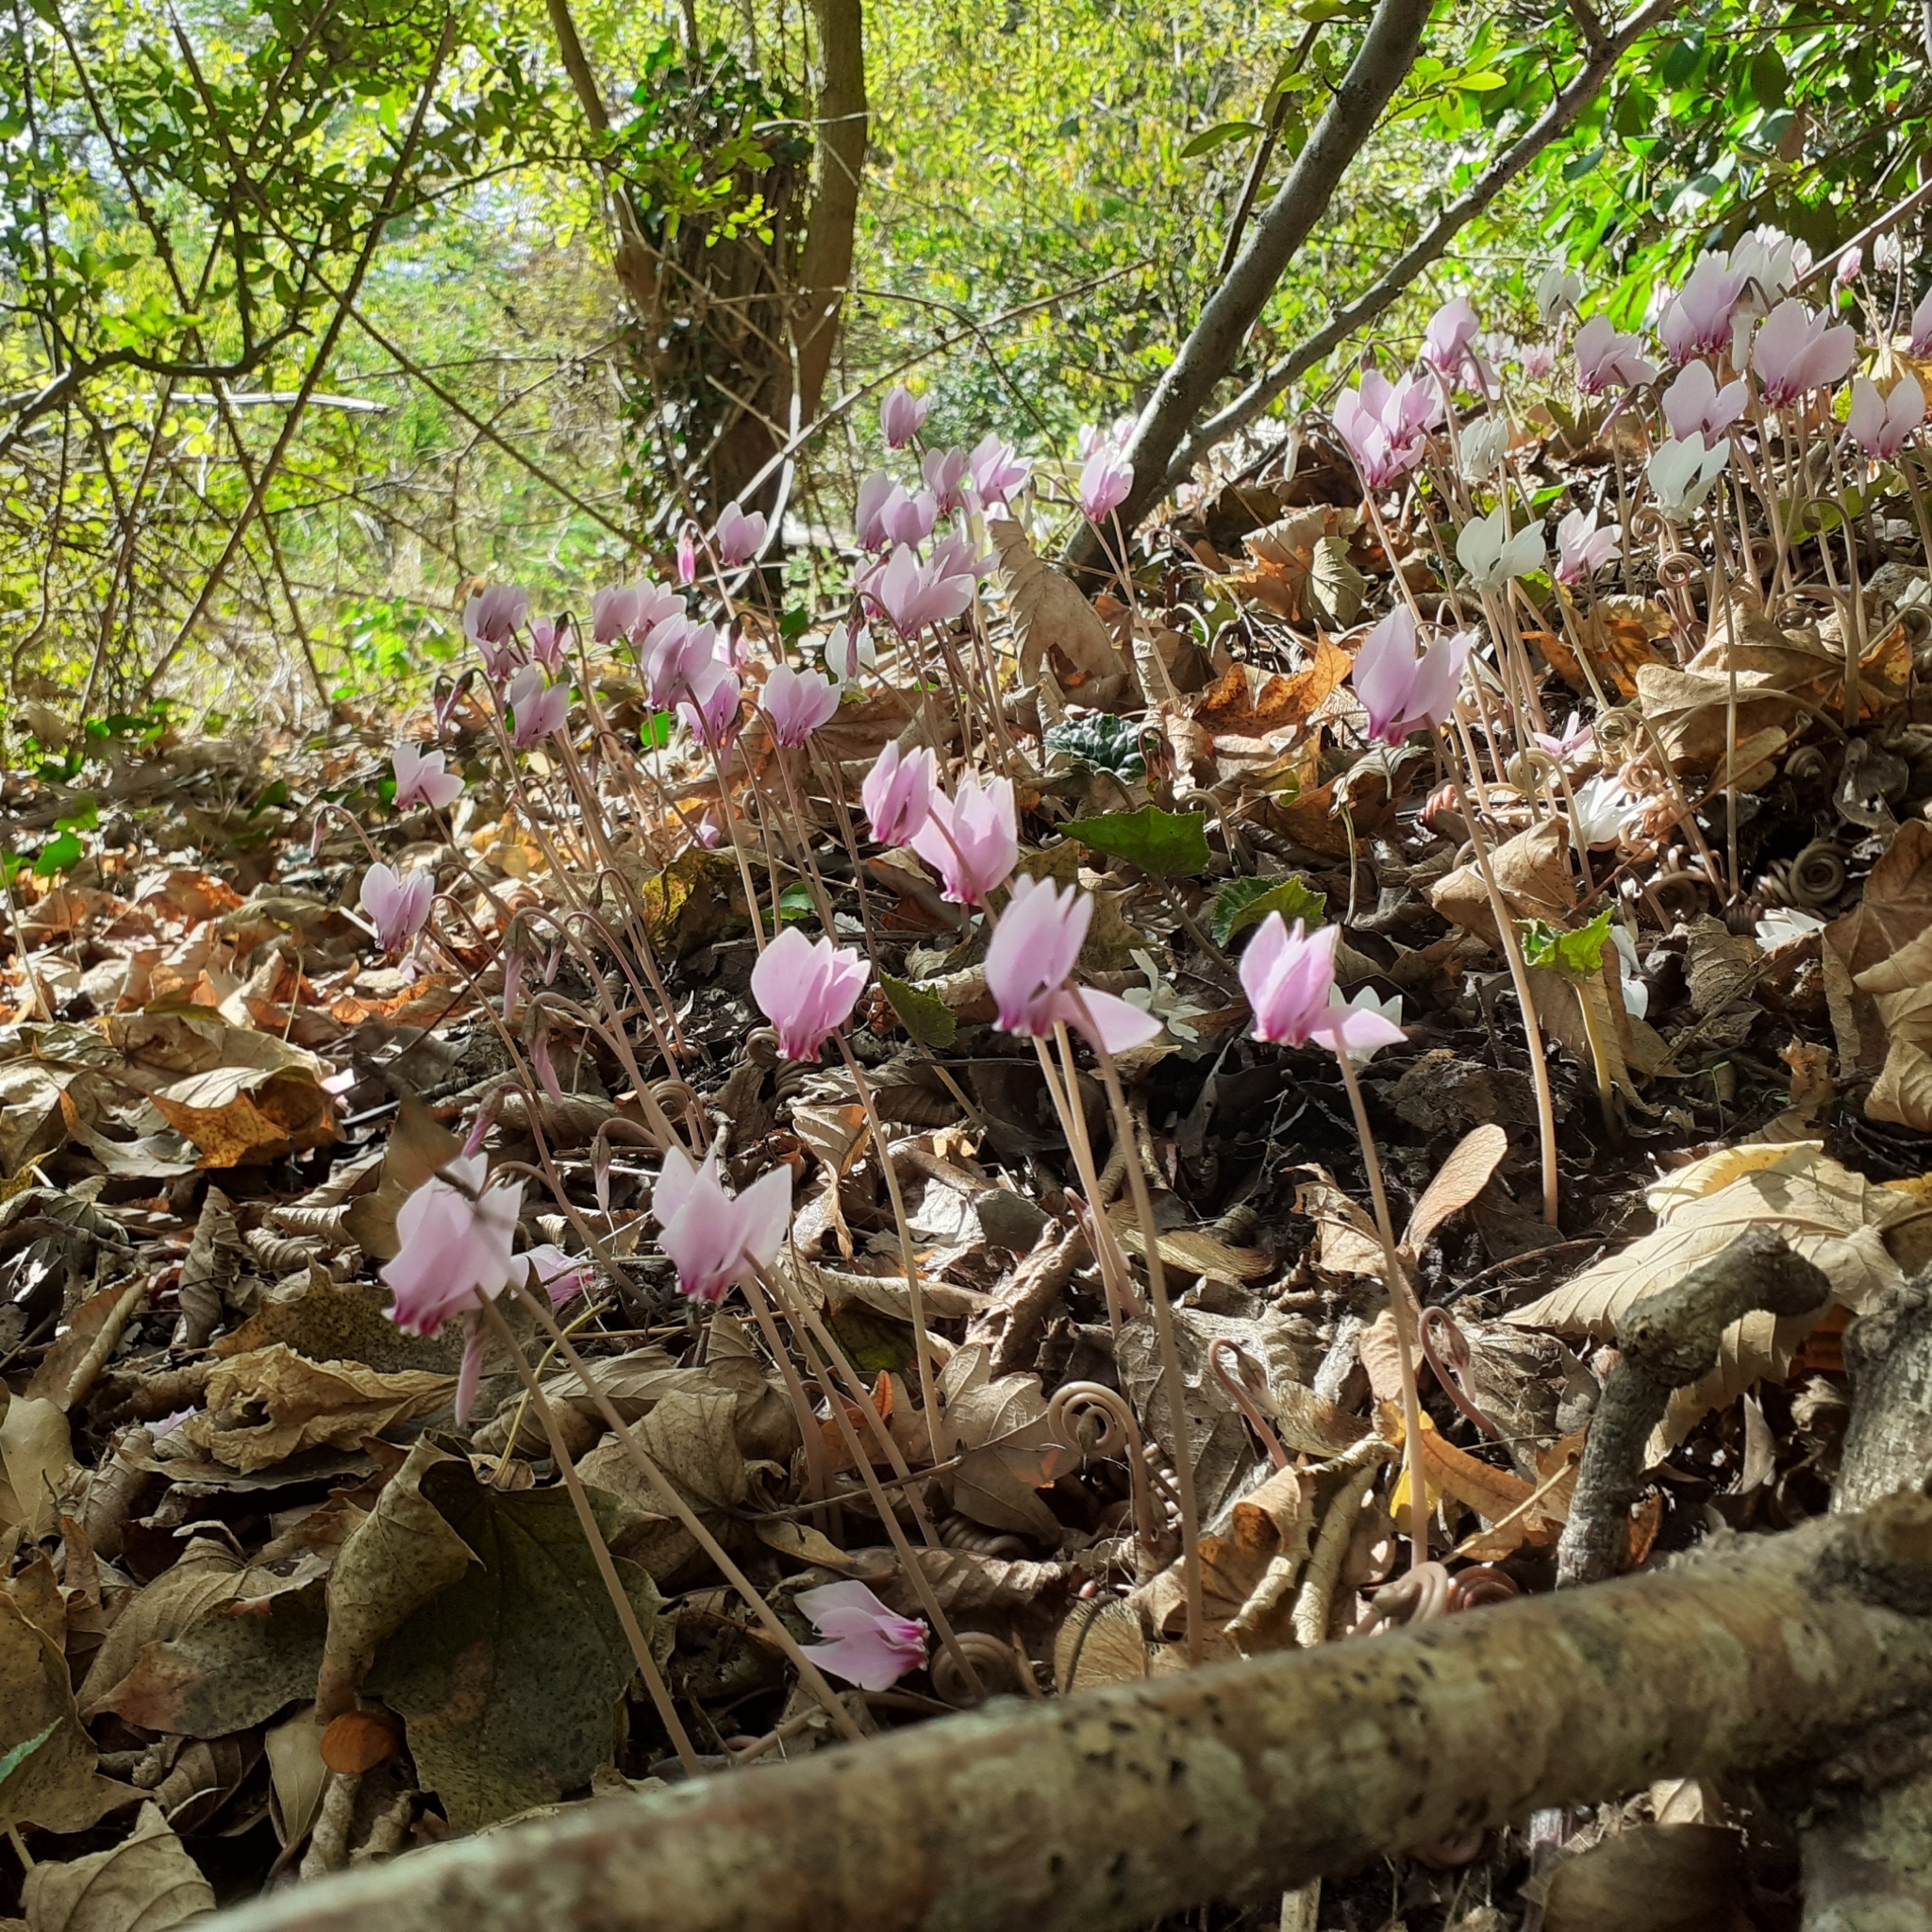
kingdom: Plantae
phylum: Tracheophyta
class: Magnoliopsida
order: Ericales
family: Primulaceae
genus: Cyclamen
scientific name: Cyclamen hederifolium
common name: Sowbread
